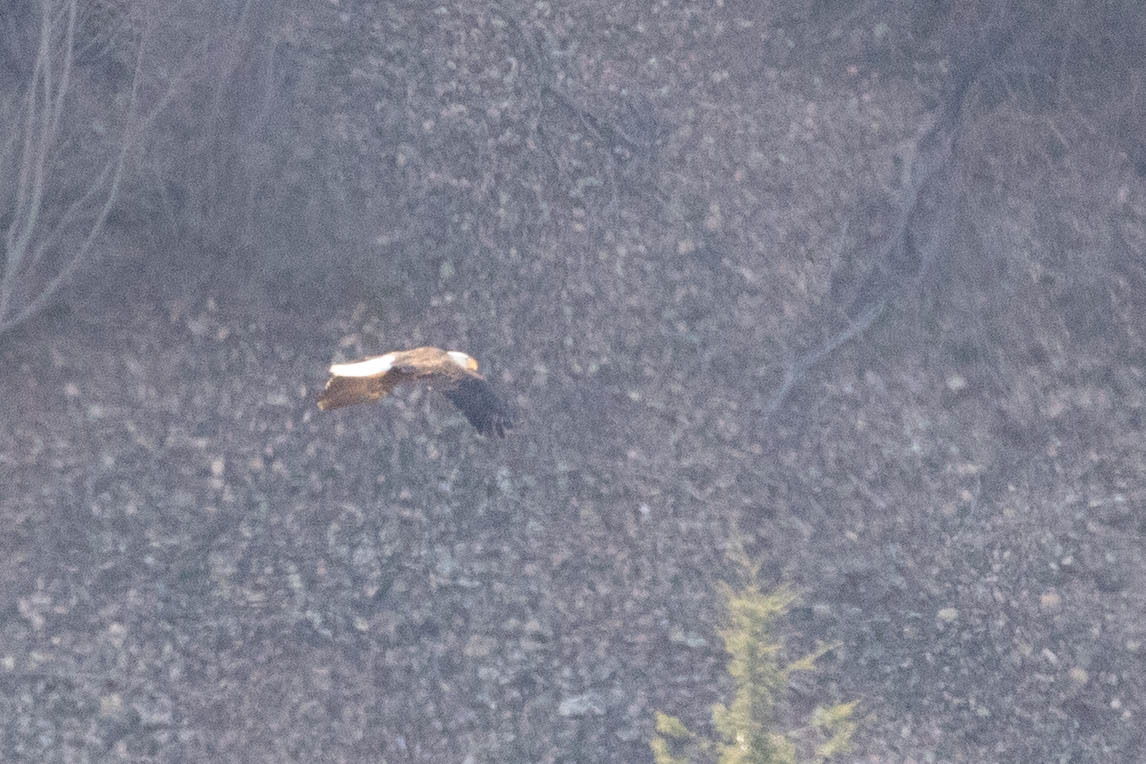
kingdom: Animalia
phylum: Chordata
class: Aves
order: Accipitriformes
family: Accipitridae
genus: Haliaeetus
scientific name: Haliaeetus leucocephalus
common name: Bald eagle
